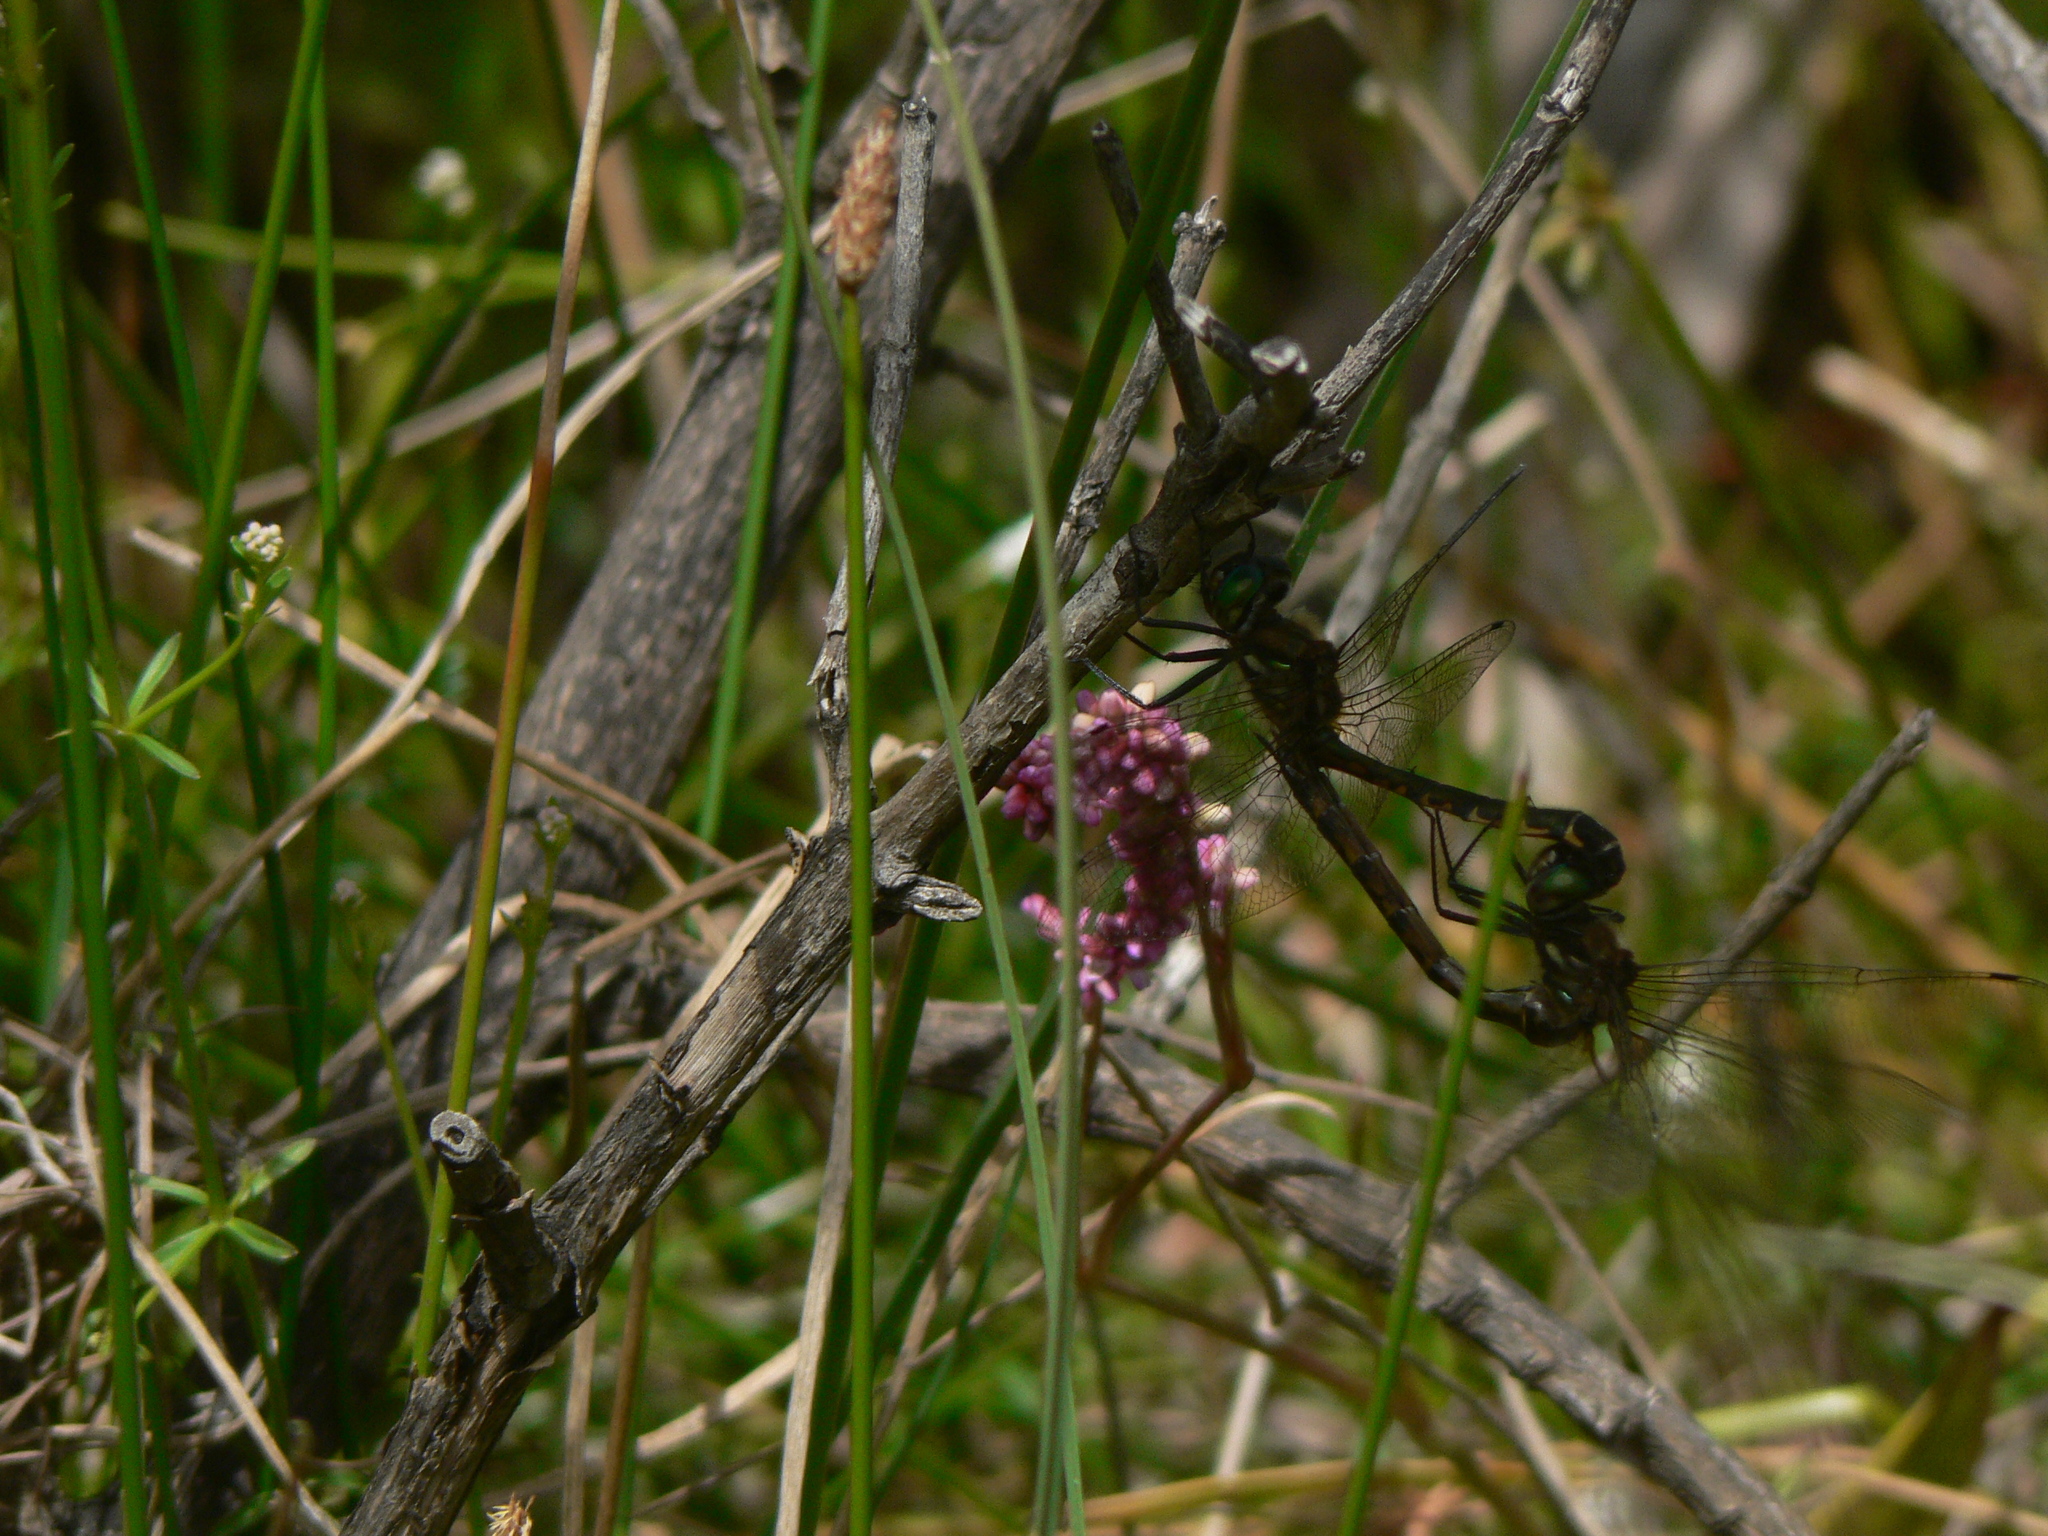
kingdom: Animalia
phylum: Arthropoda
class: Insecta
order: Odonata
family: Corduliidae
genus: Hemicordulia
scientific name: Hemicordulia armstrongi
